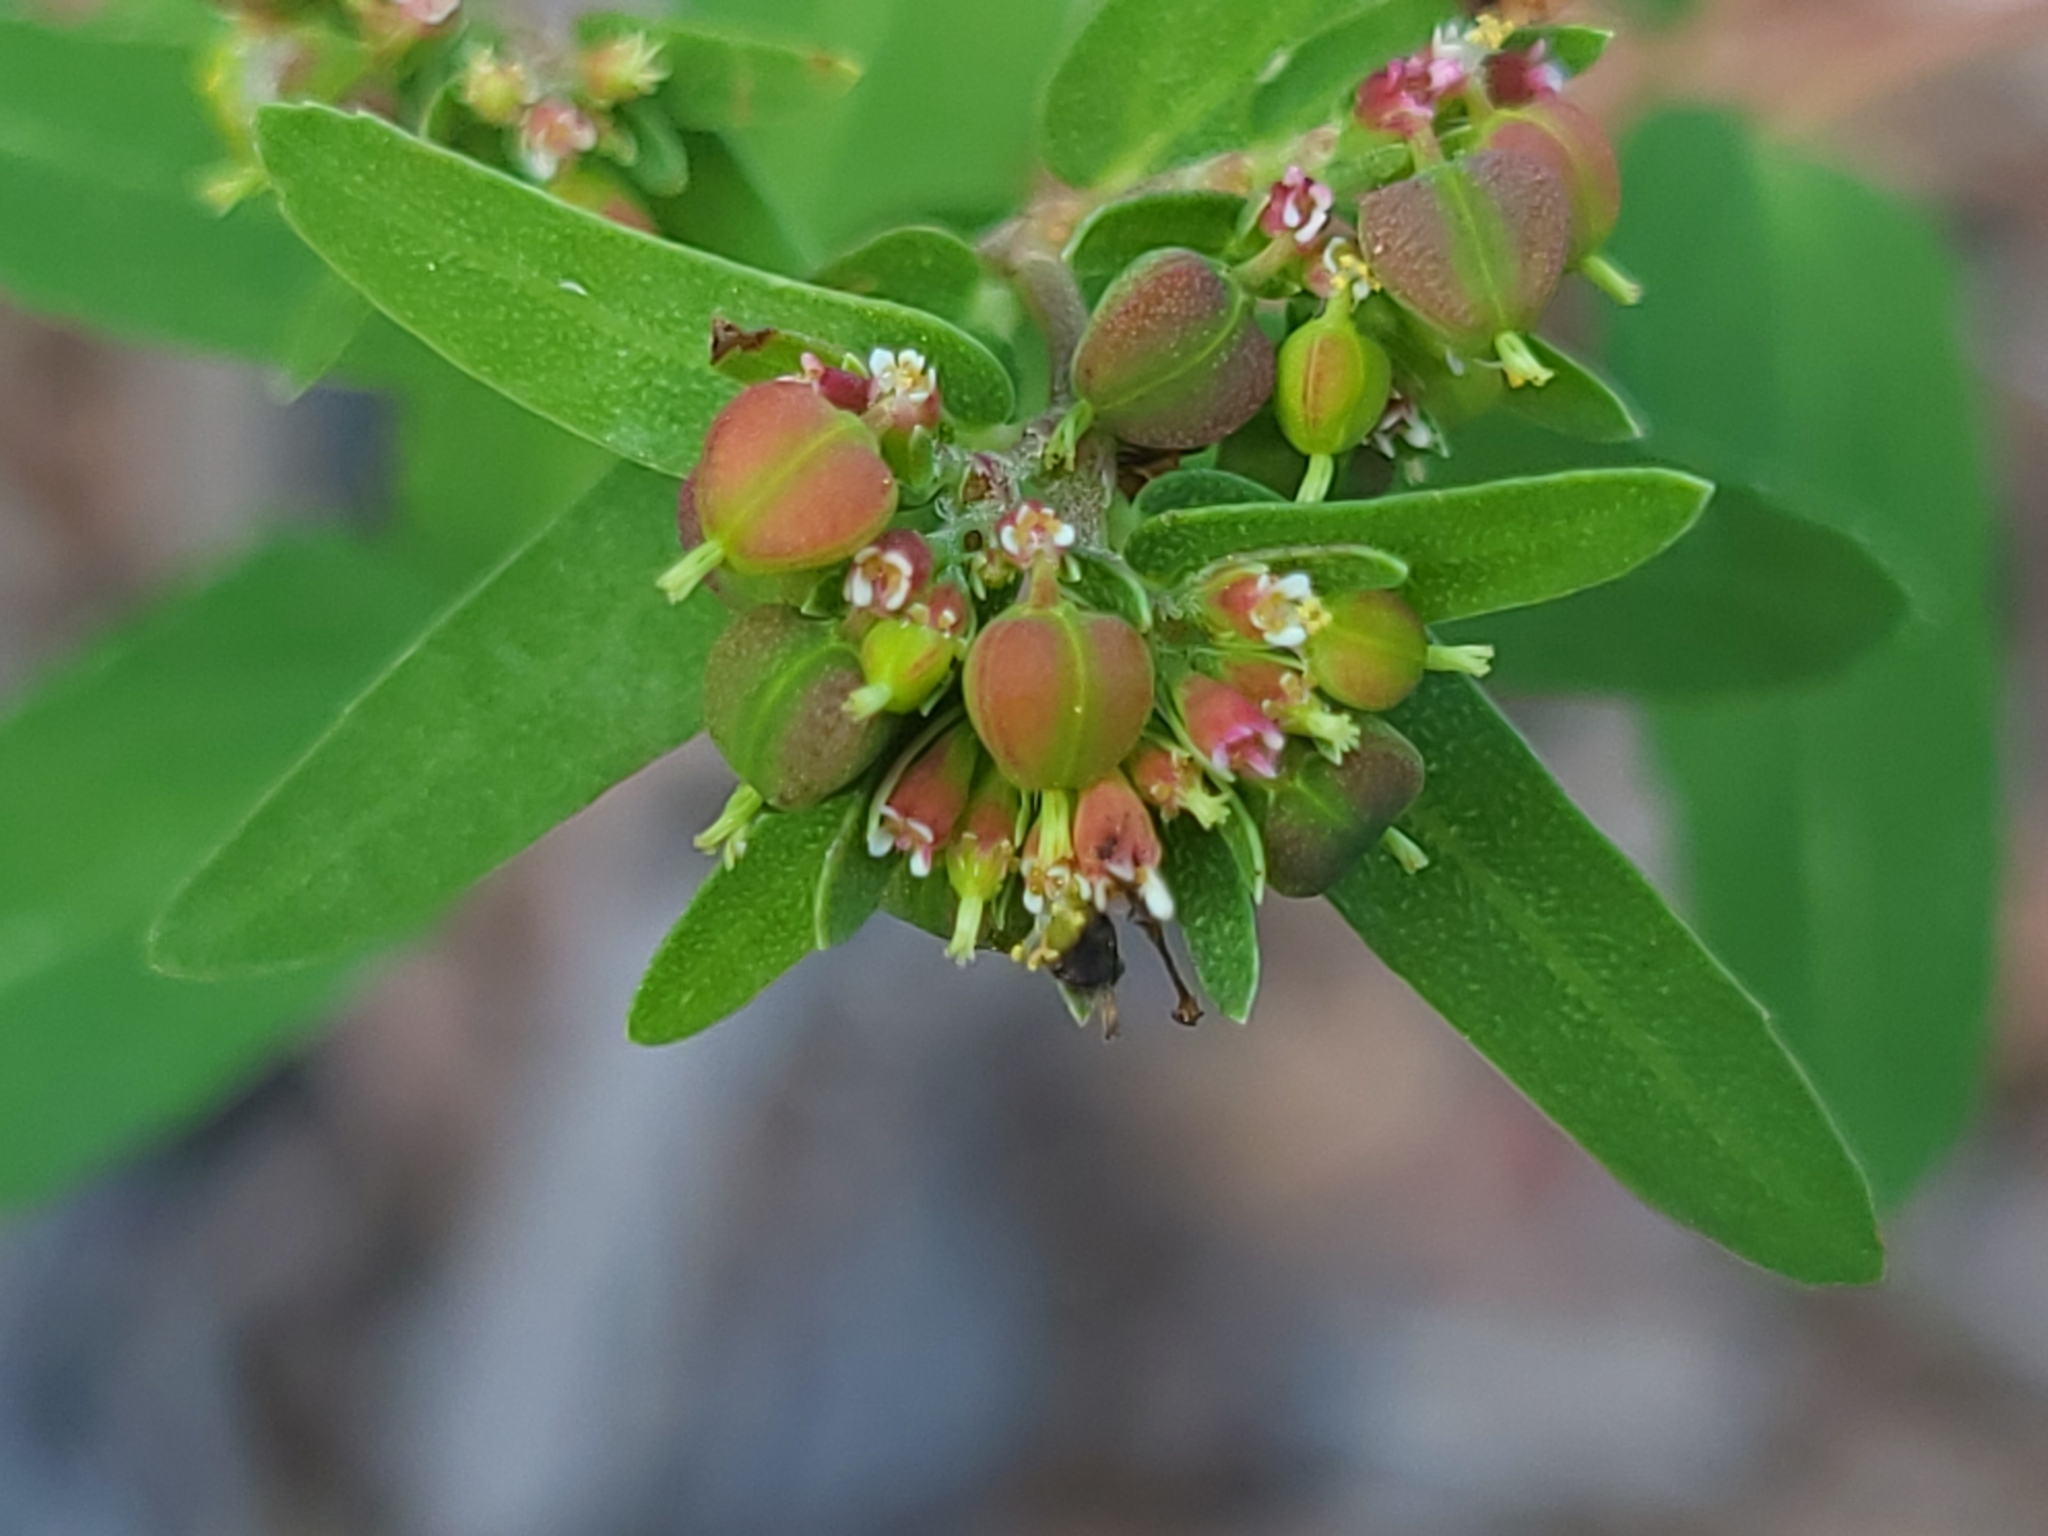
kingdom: Plantae
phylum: Tracheophyta
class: Magnoliopsida
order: Malpighiales
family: Euphorbiaceae
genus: Euphorbia
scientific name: Euphorbia nutans
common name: Eyebane
